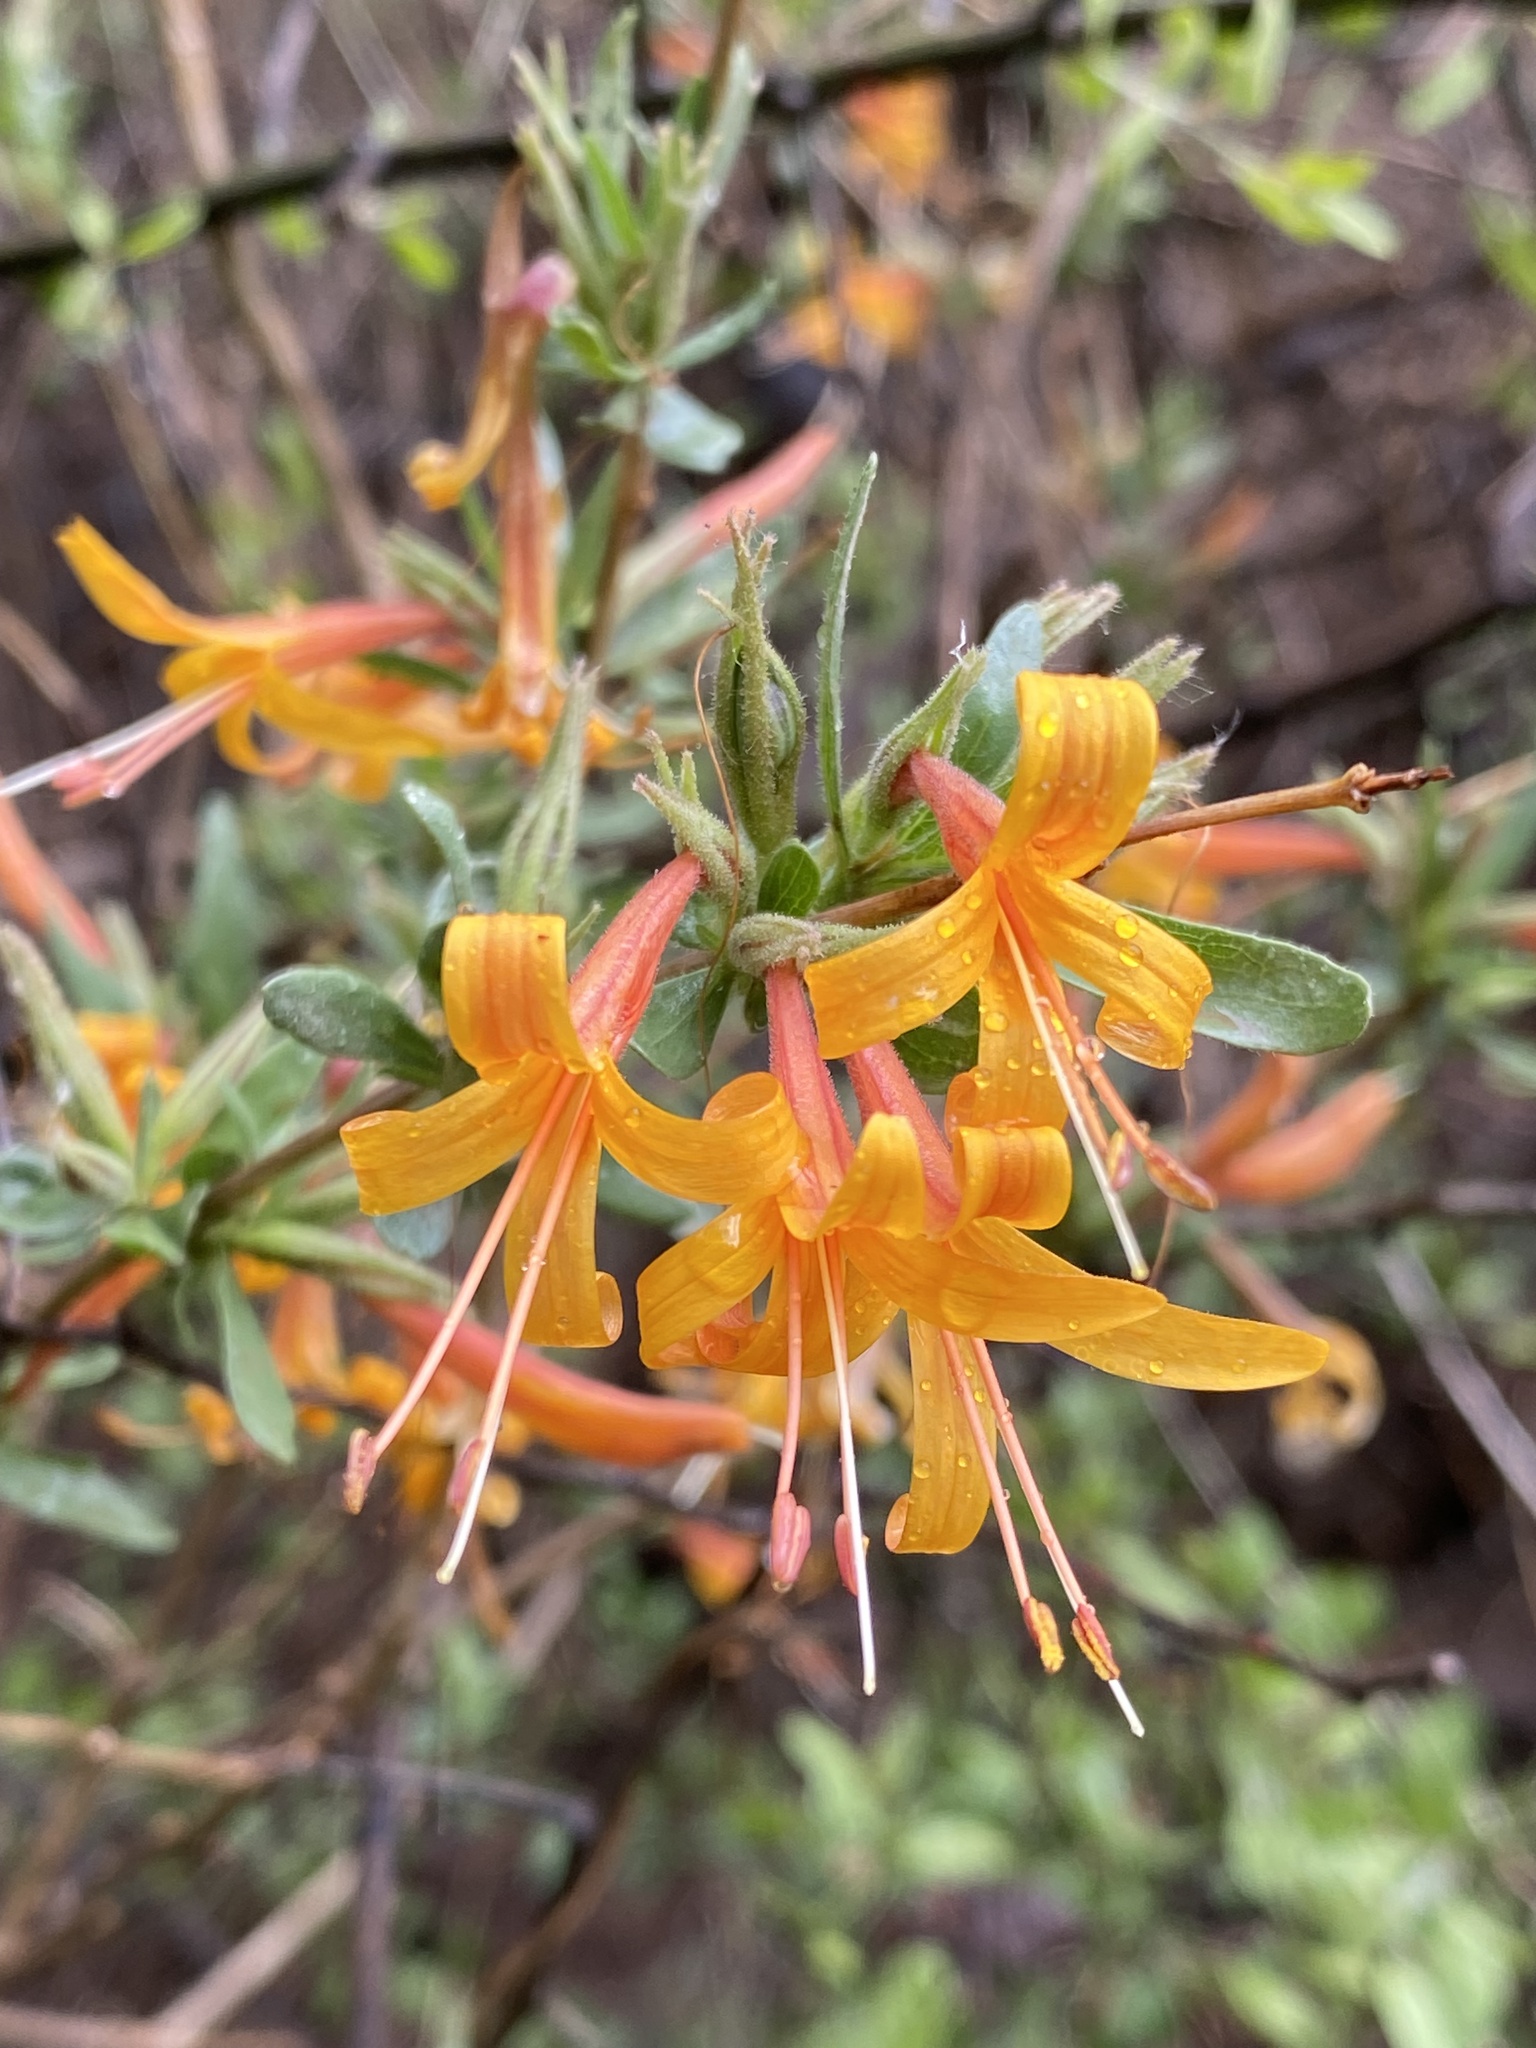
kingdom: Plantae
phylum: Tracheophyta
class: Magnoliopsida
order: Lamiales
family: Acanthaceae
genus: Anisacanthus
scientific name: Anisacanthus thurberi
